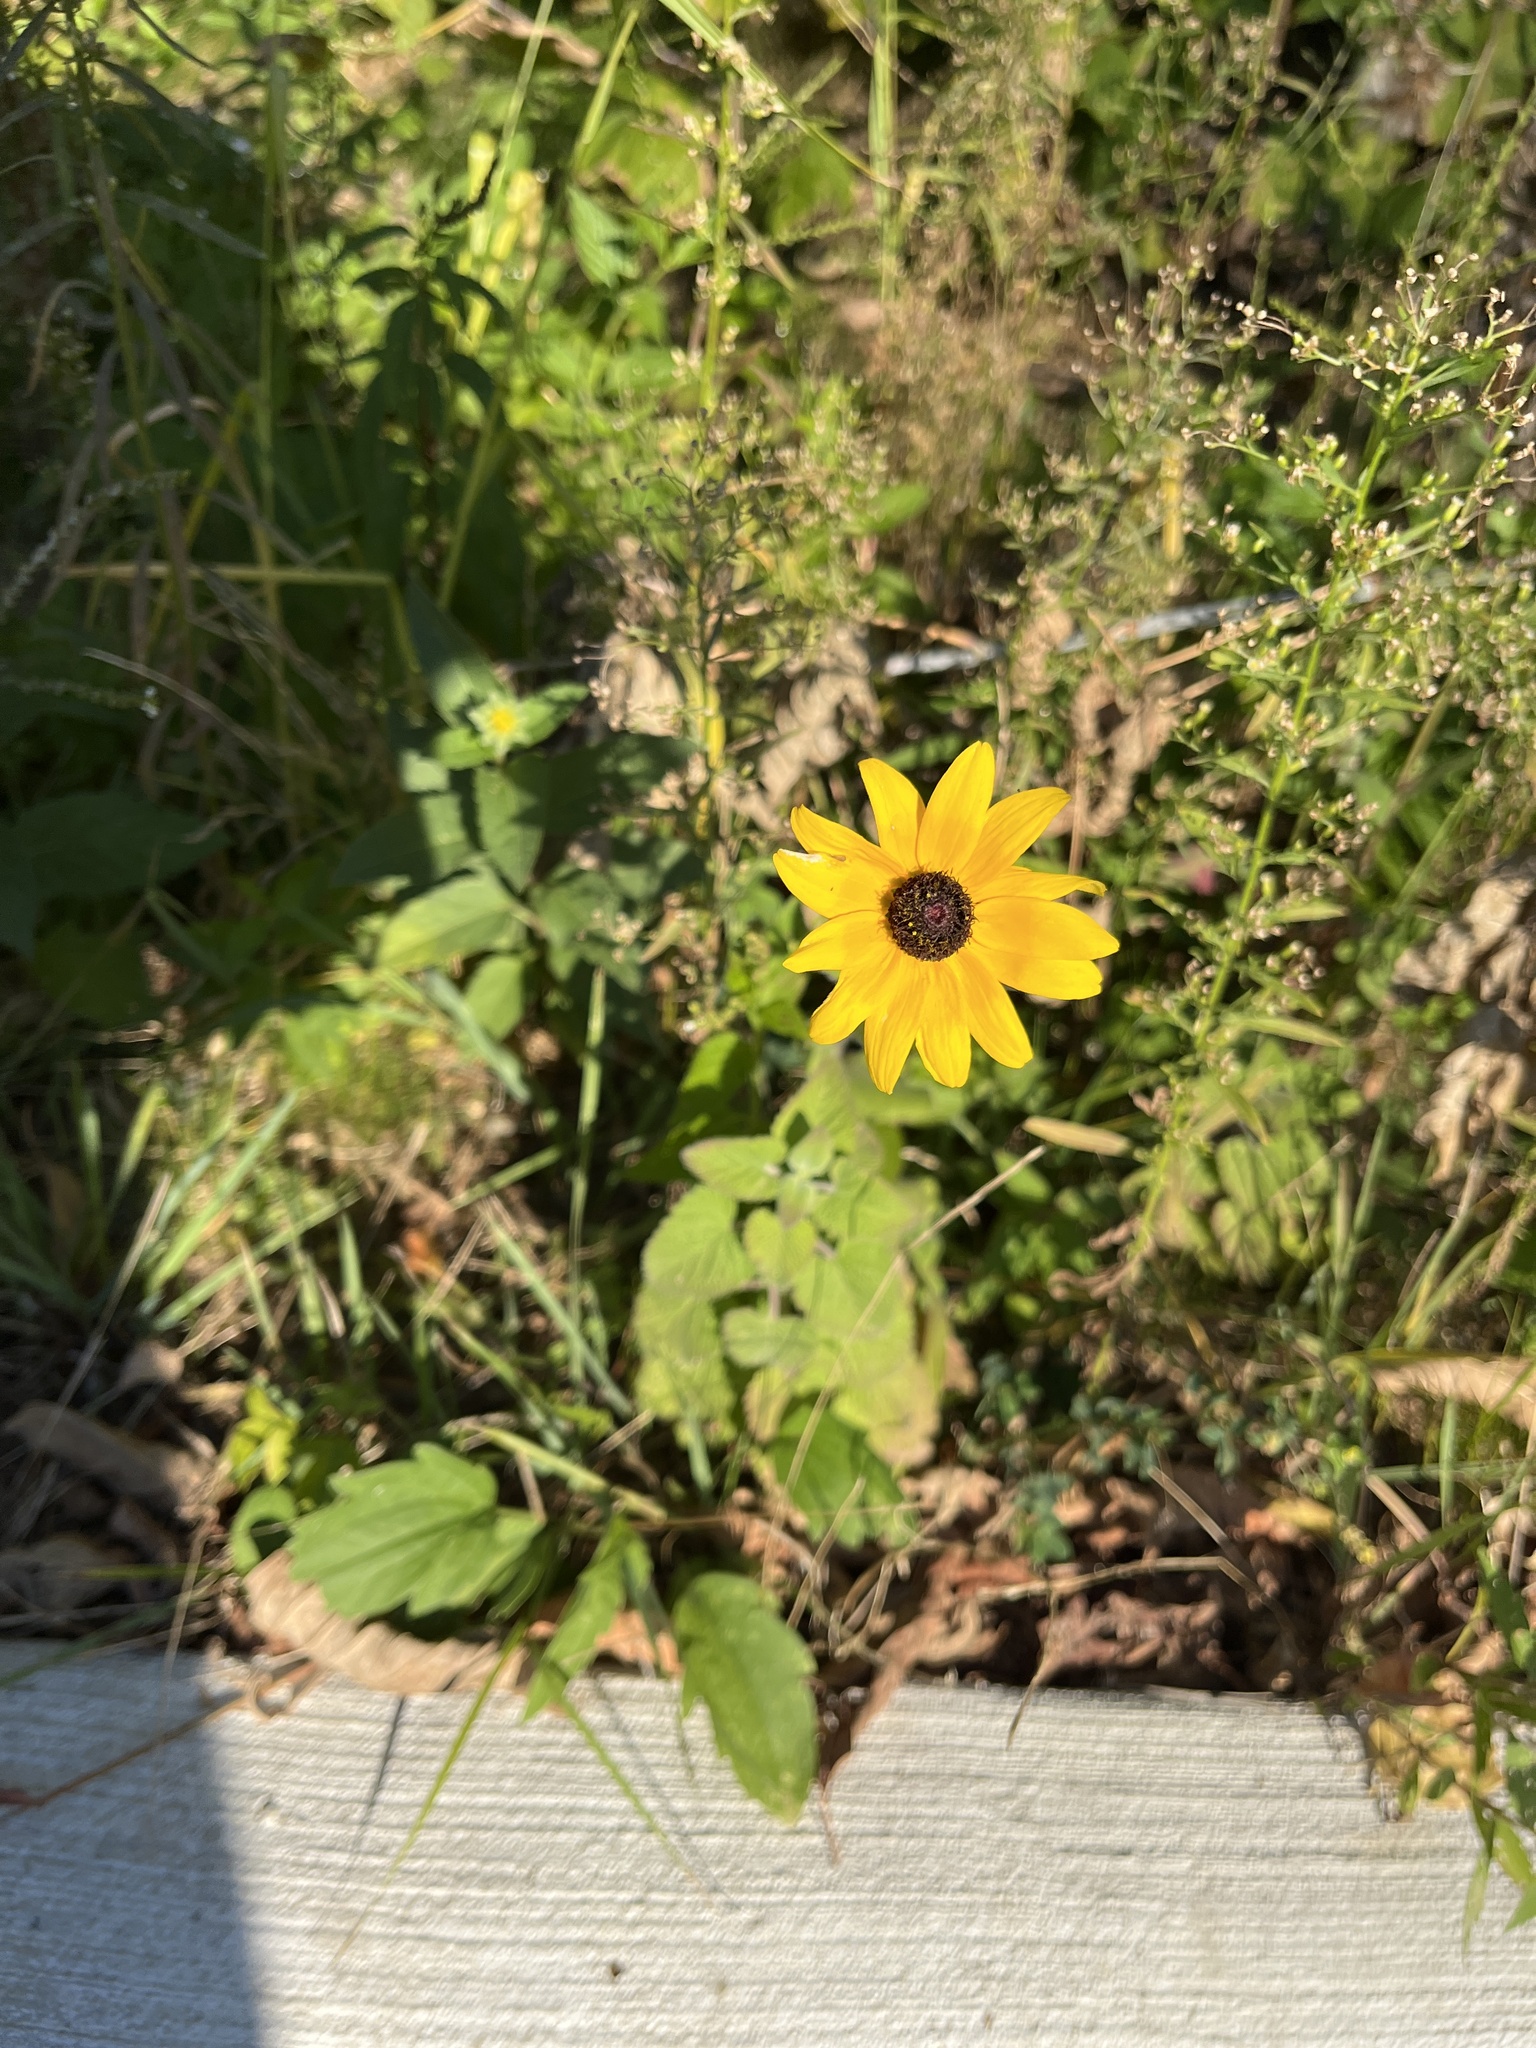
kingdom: Plantae
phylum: Tracheophyta
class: Magnoliopsida
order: Asterales
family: Asteraceae
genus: Rudbeckia
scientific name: Rudbeckia fulgida
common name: Perennial coneflower
